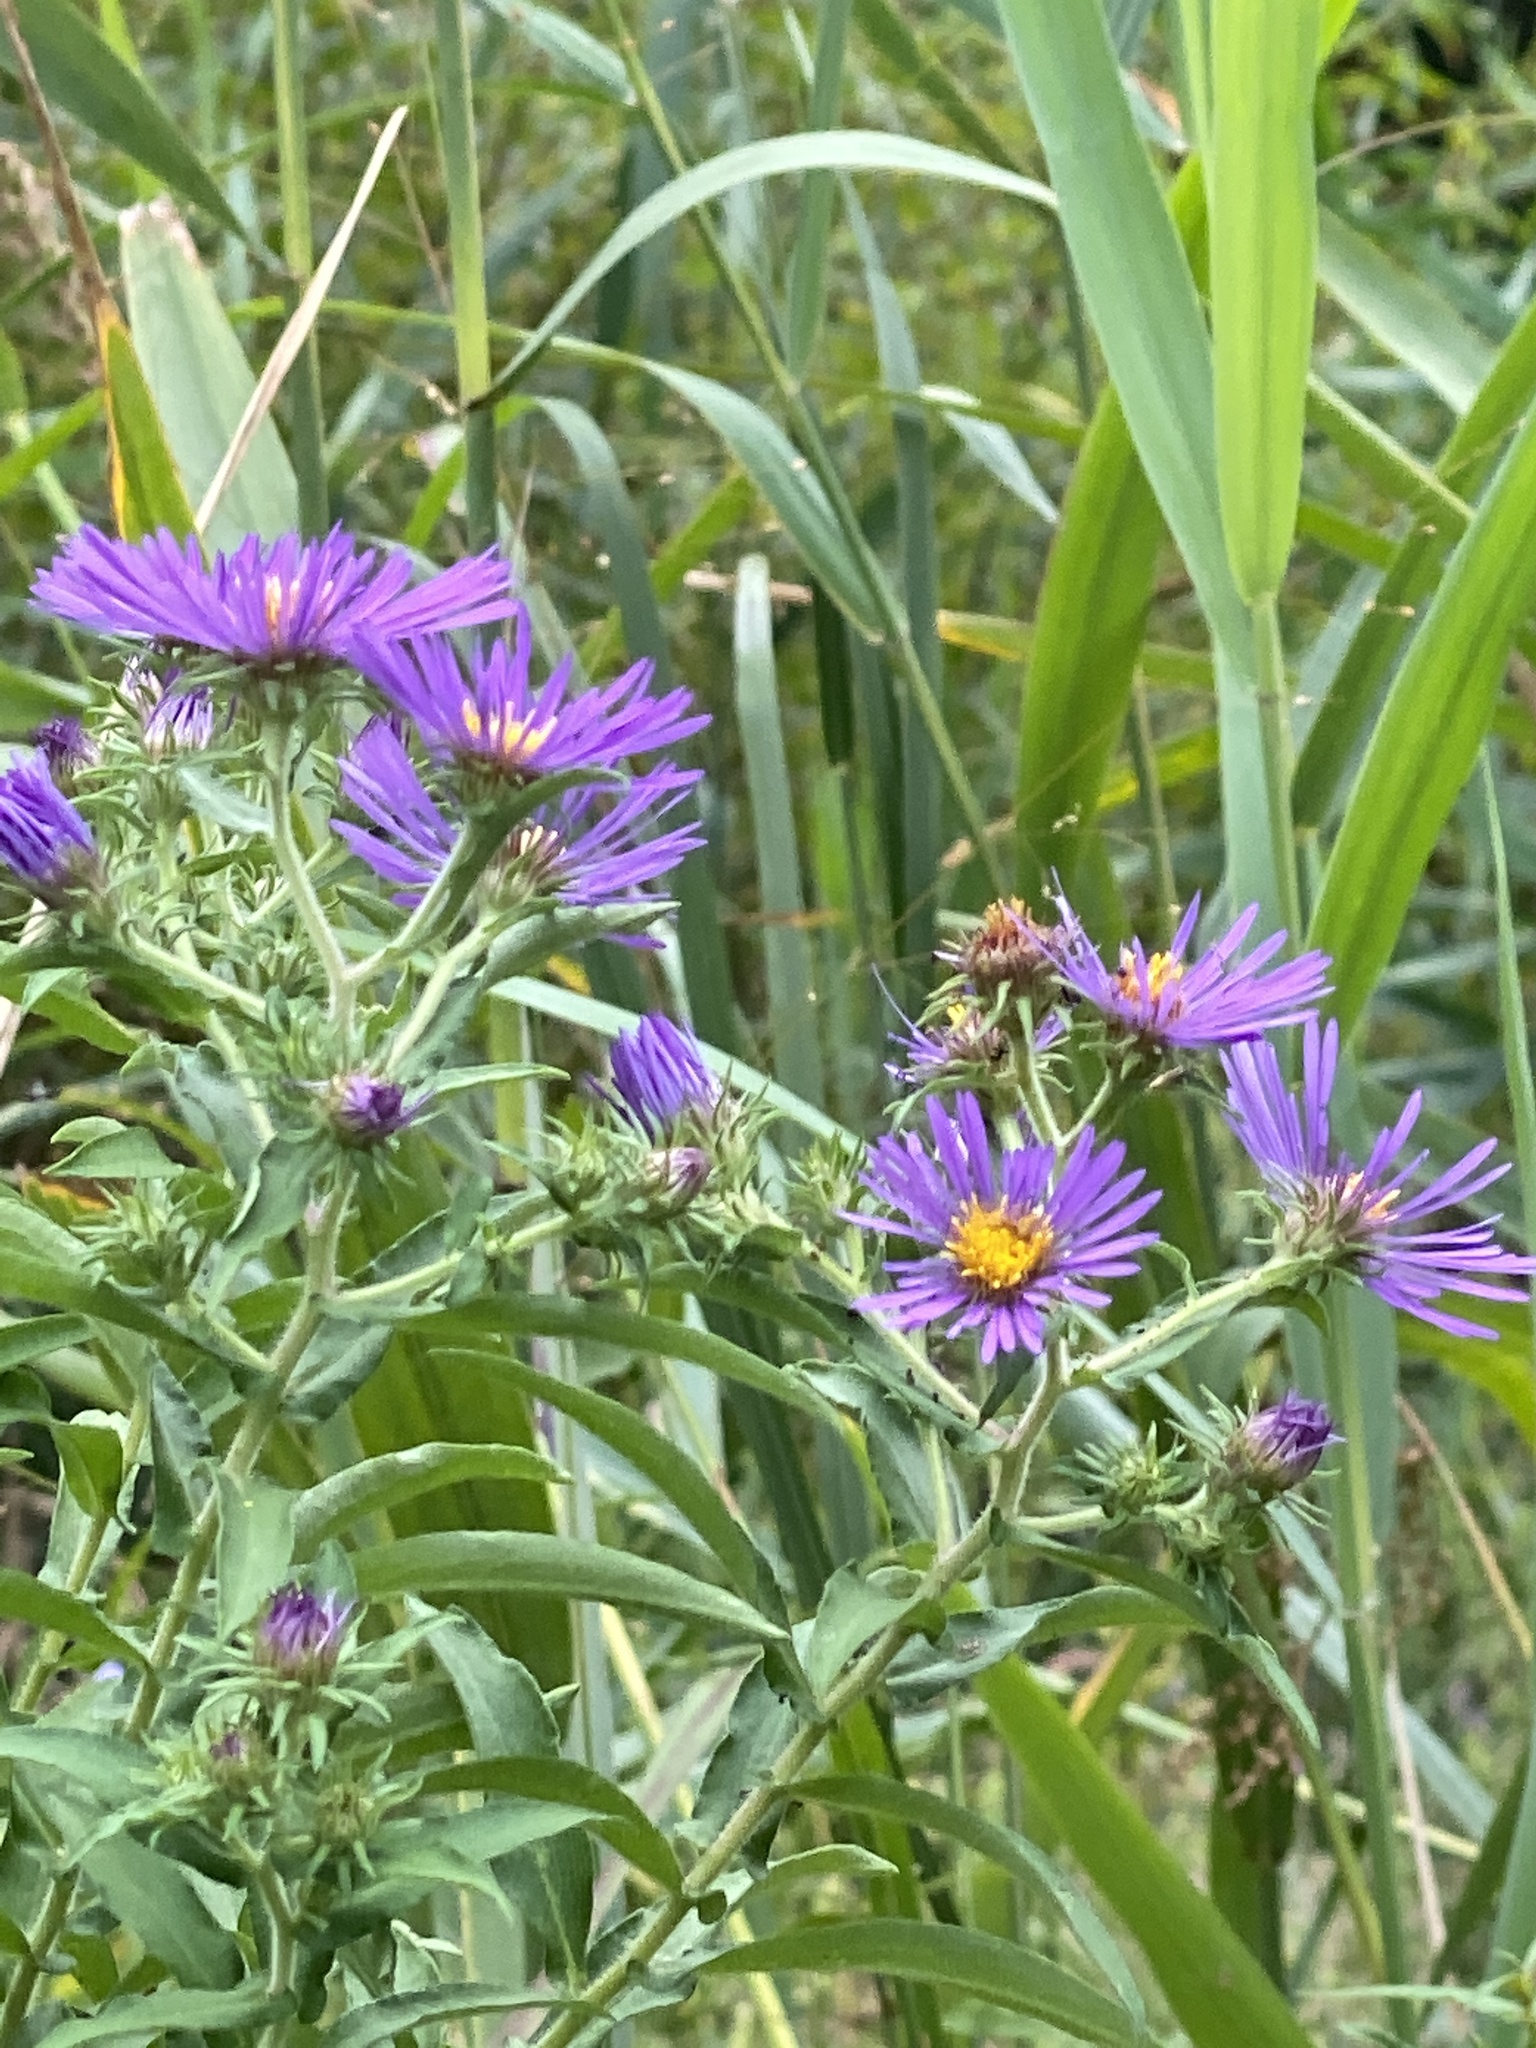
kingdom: Plantae
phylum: Tracheophyta
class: Magnoliopsida
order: Asterales
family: Asteraceae
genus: Symphyotrichum
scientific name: Symphyotrichum novae-angliae
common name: Michaelmas daisy
